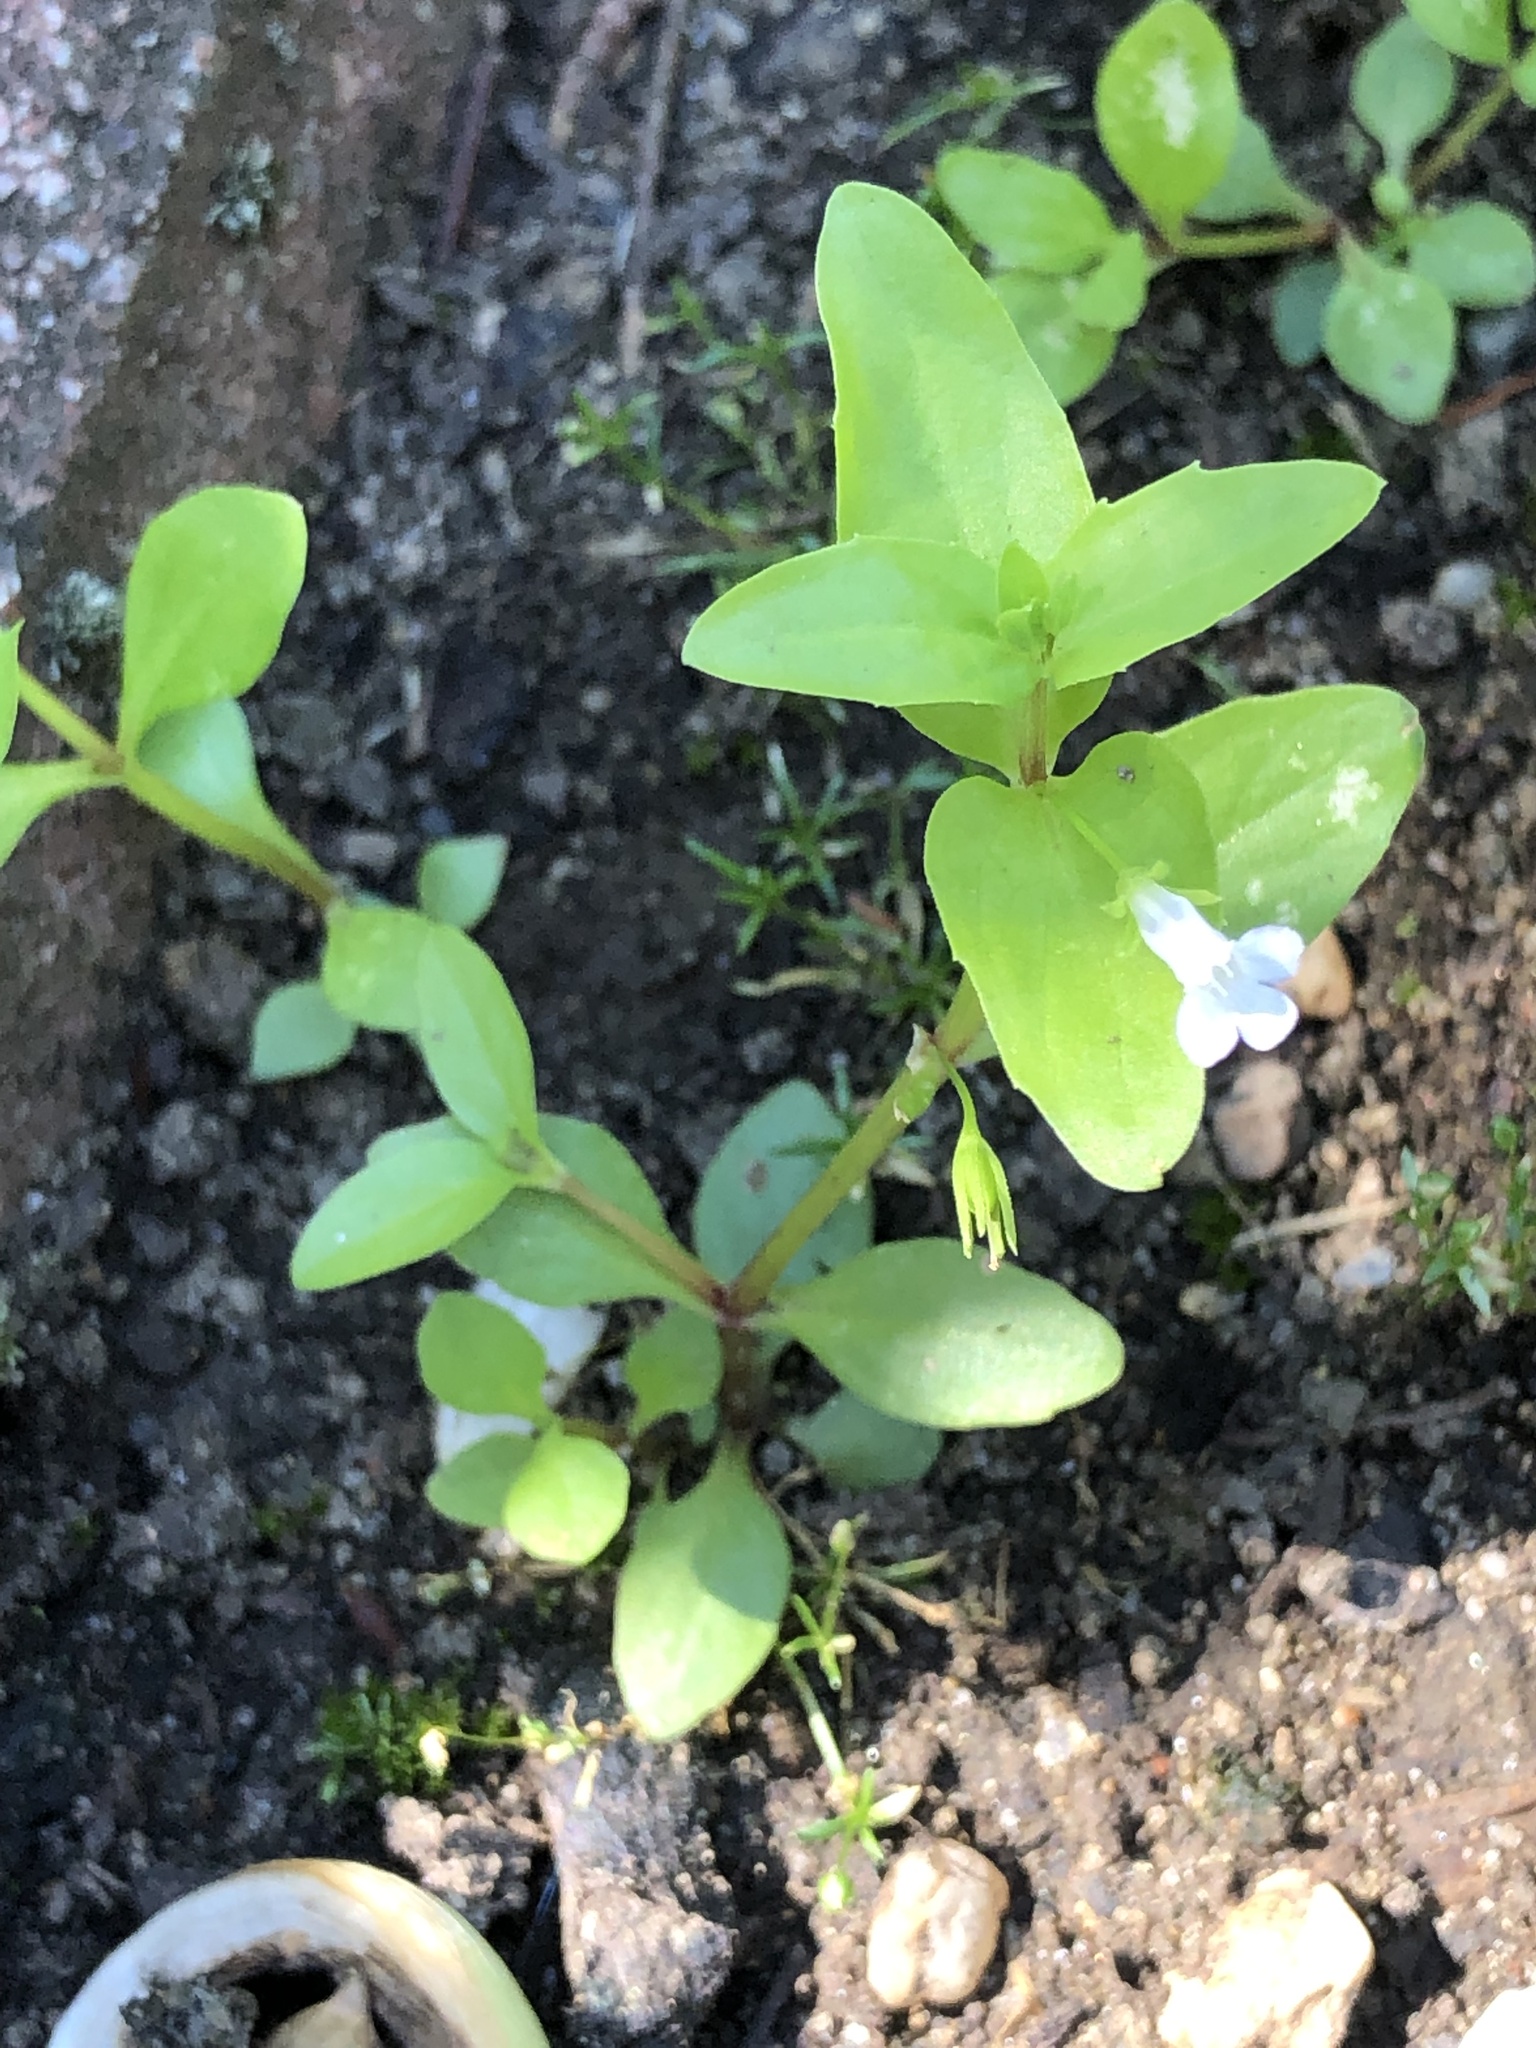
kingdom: Plantae
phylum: Tracheophyta
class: Magnoliopsida
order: Lamiales
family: Linderniaceae
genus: Lindernia
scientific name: Lindernia dubia
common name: Annual false pimpernel
